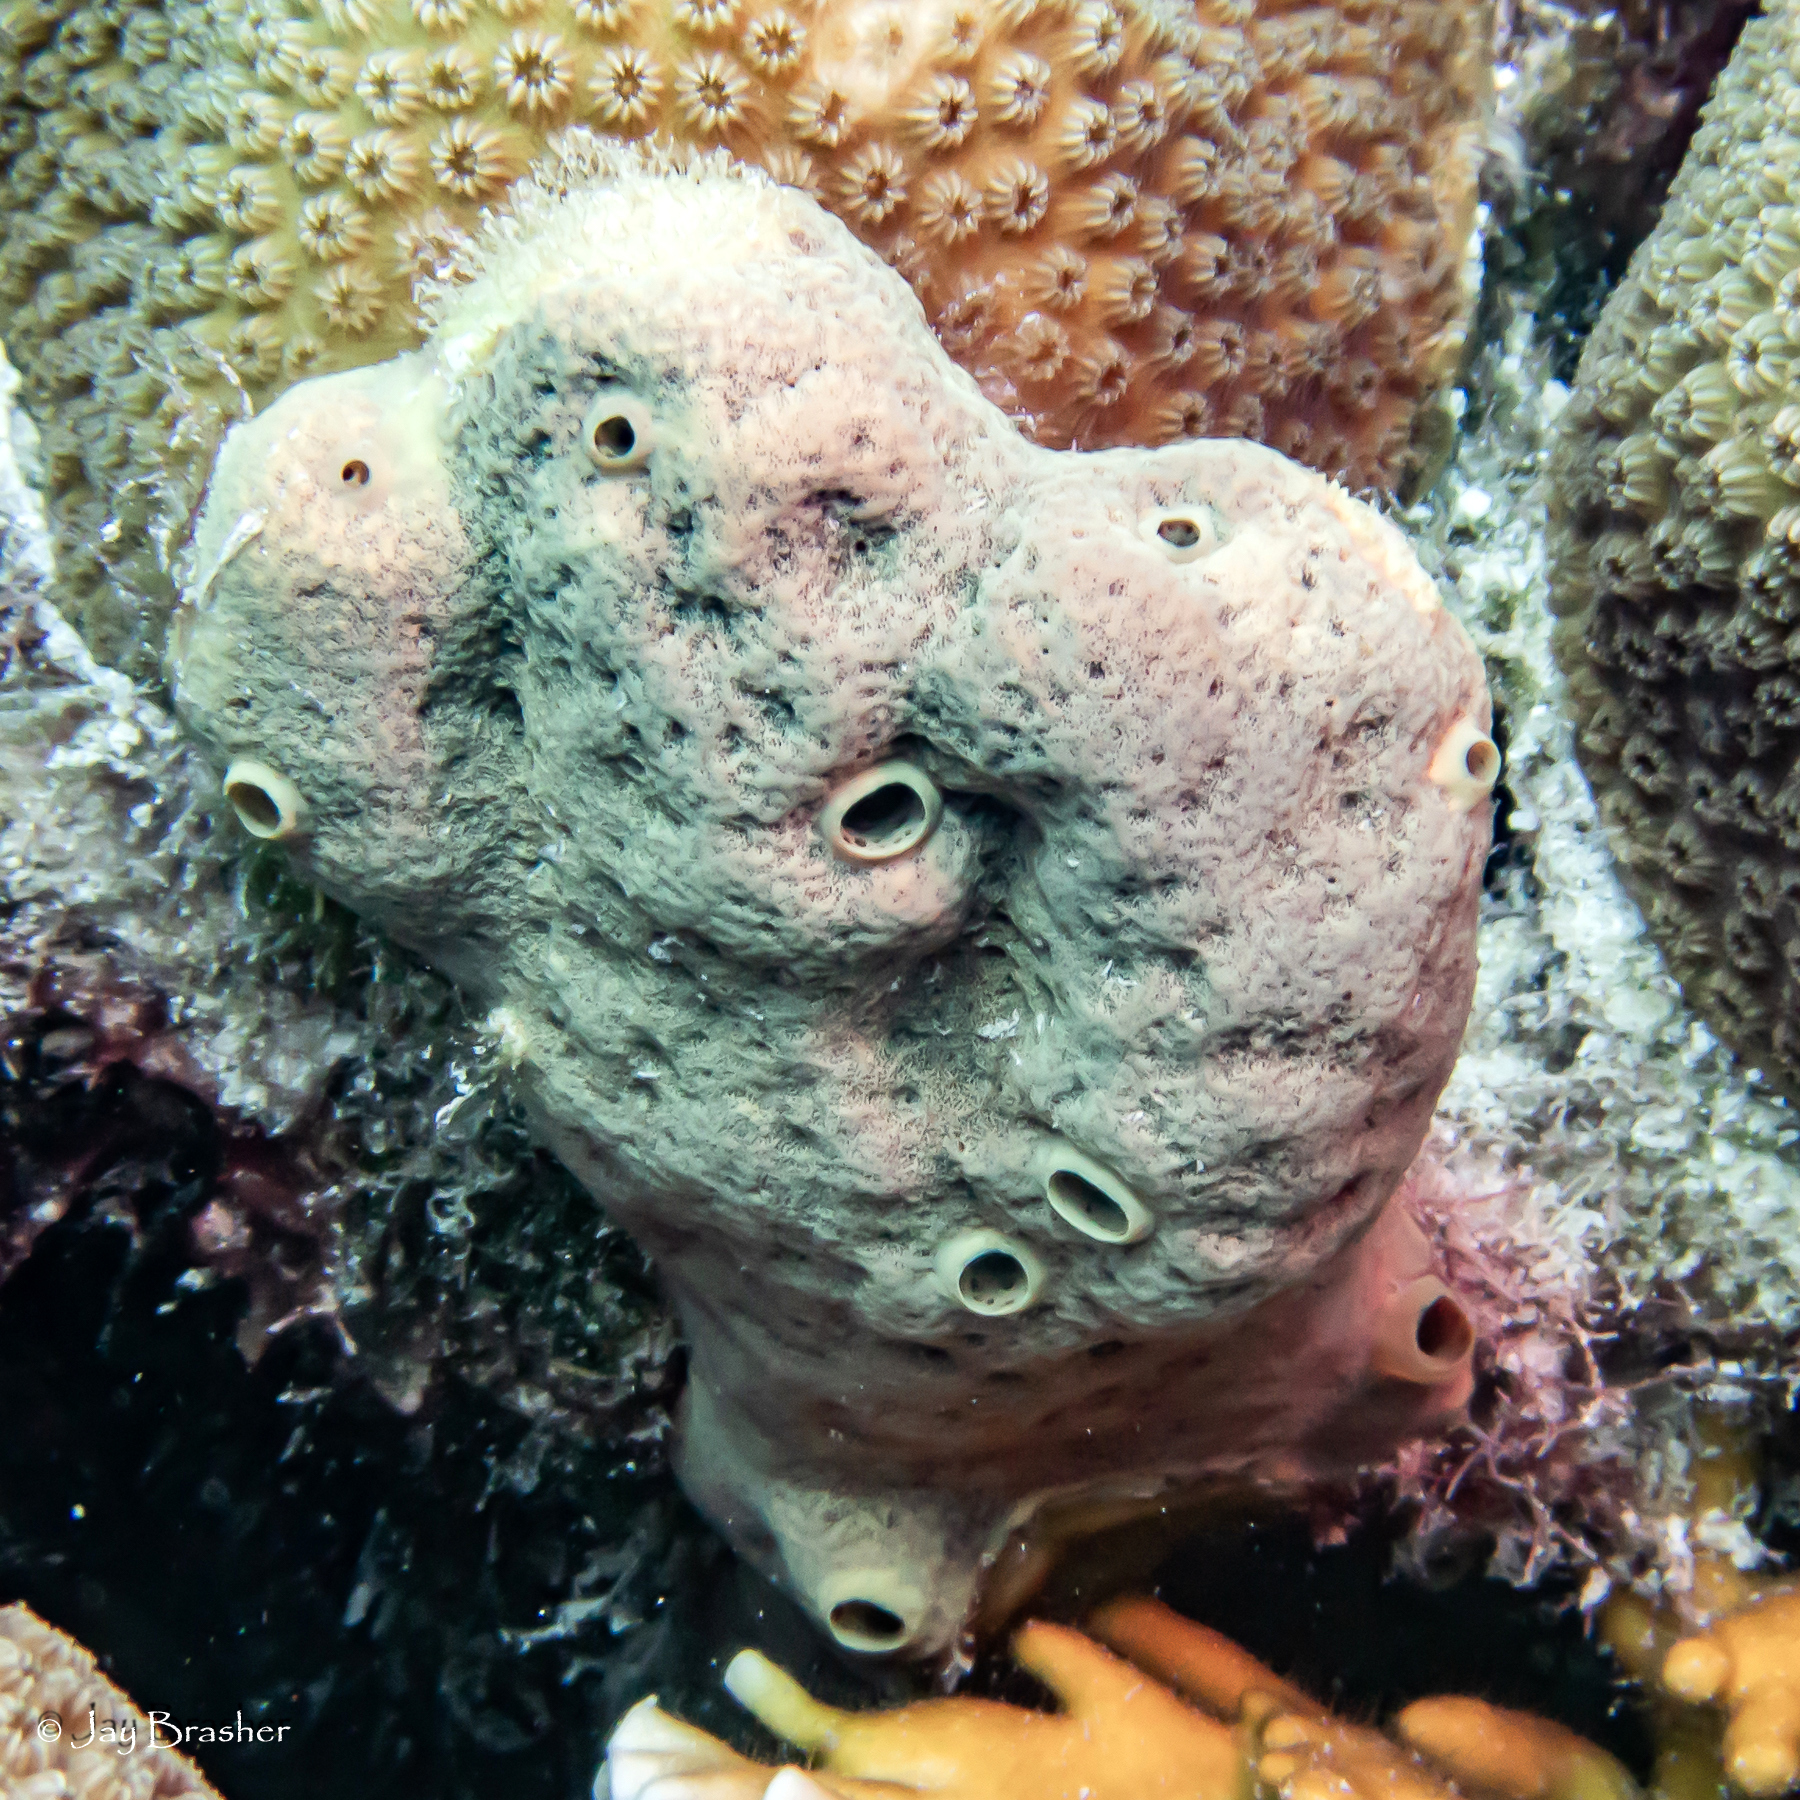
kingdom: Animalia
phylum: Porifera
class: Demospongiae
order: Verongiida
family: Aplysinidae
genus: Aplysina
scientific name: Aplysina fulva
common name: Scattered pore rope sponge
